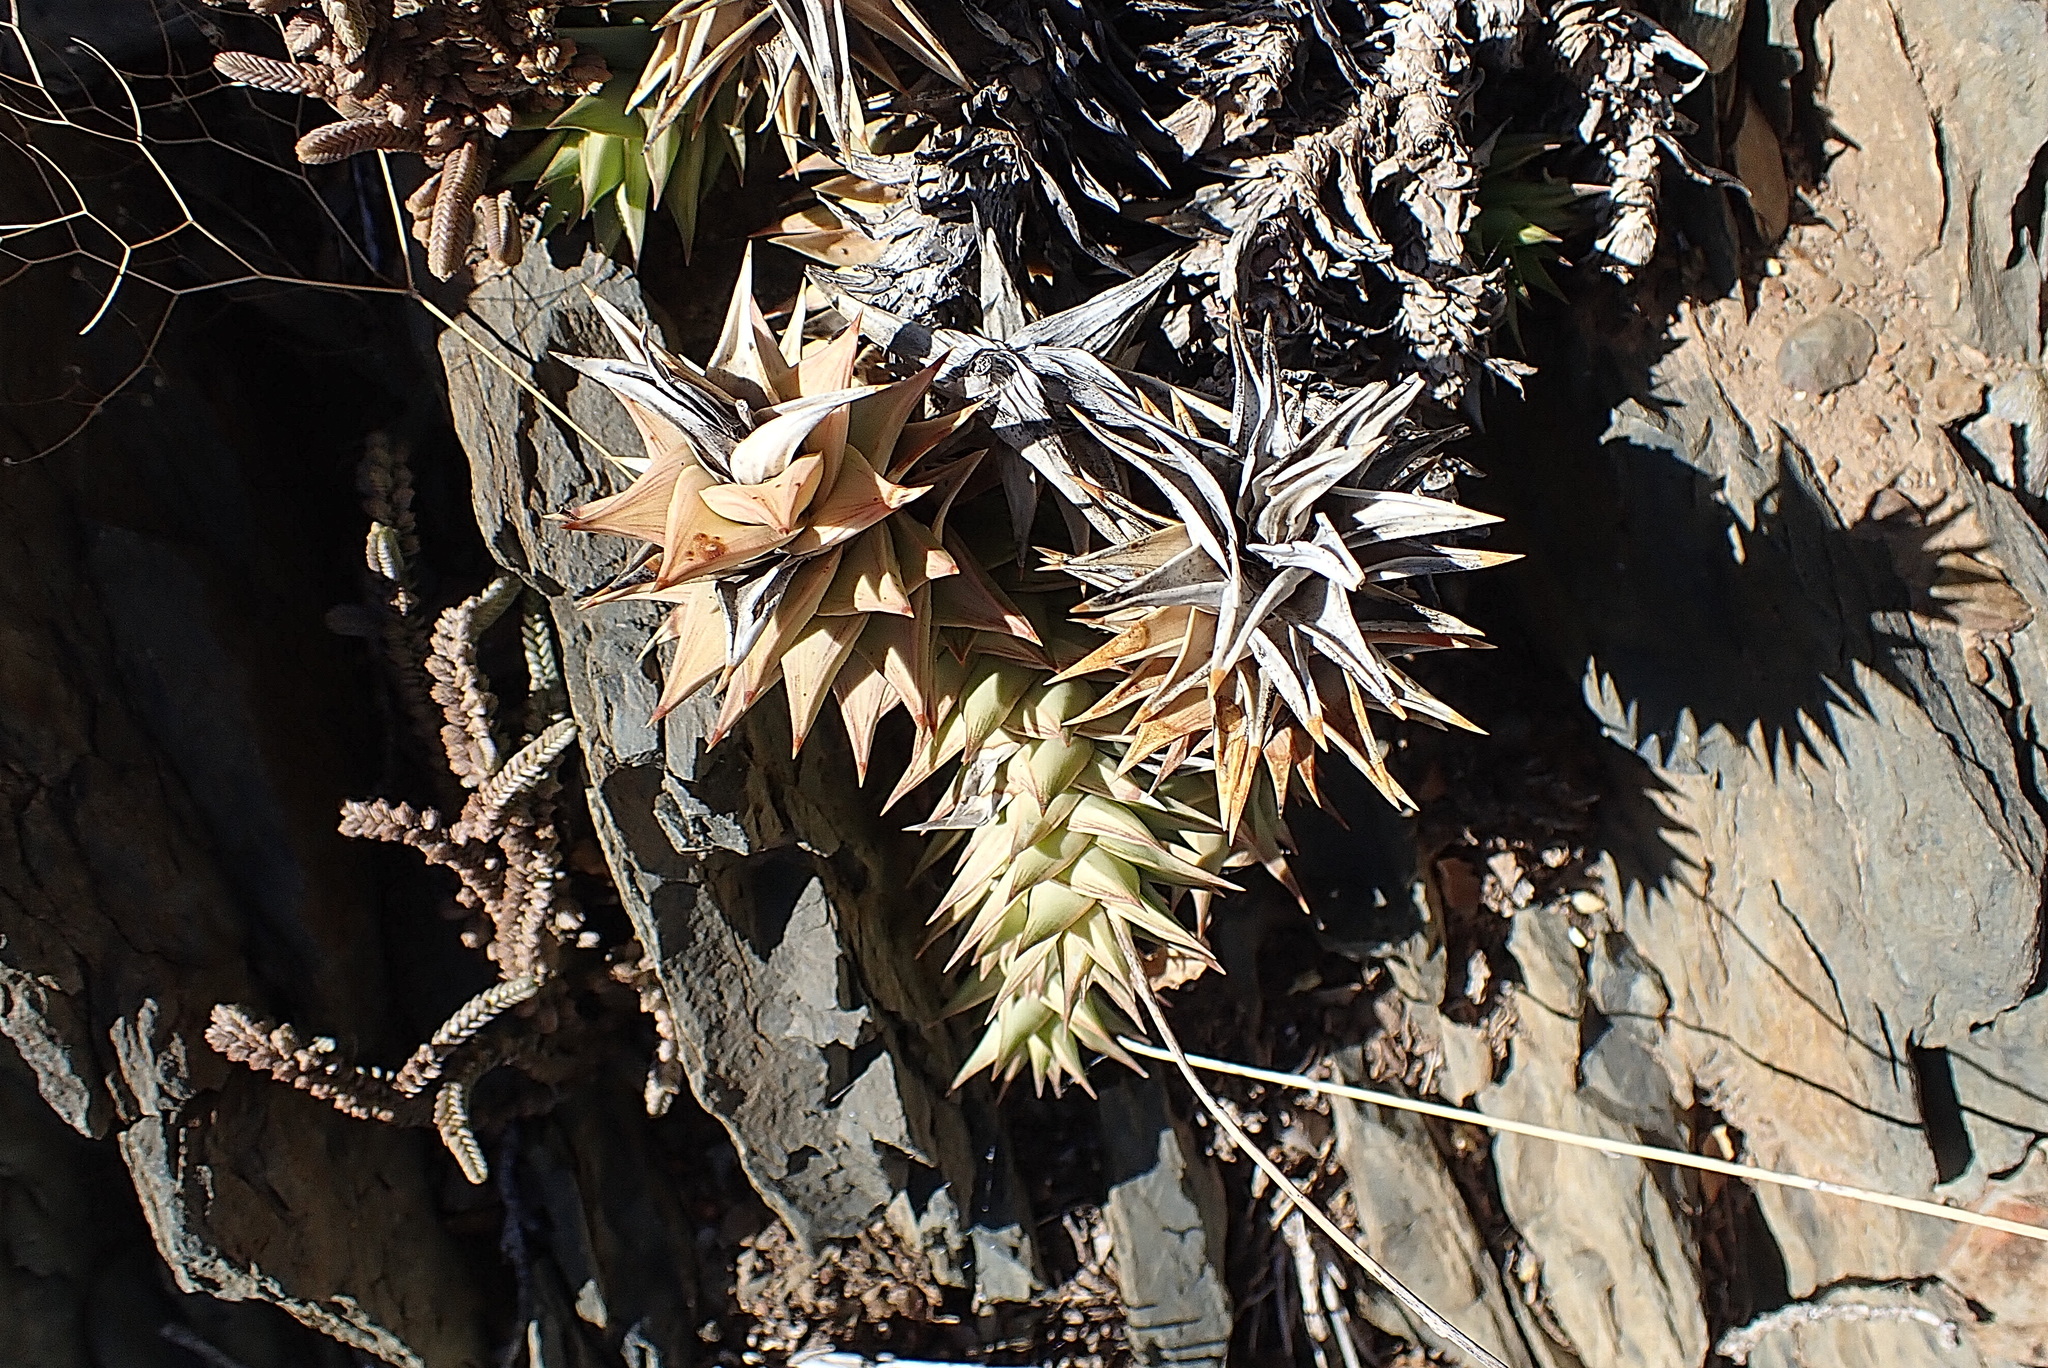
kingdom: Plantae
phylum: Tracheophyta
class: Liliopsida
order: Asparagales
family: Asphodelaceae
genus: Astroloba
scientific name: Astroloba spirella
